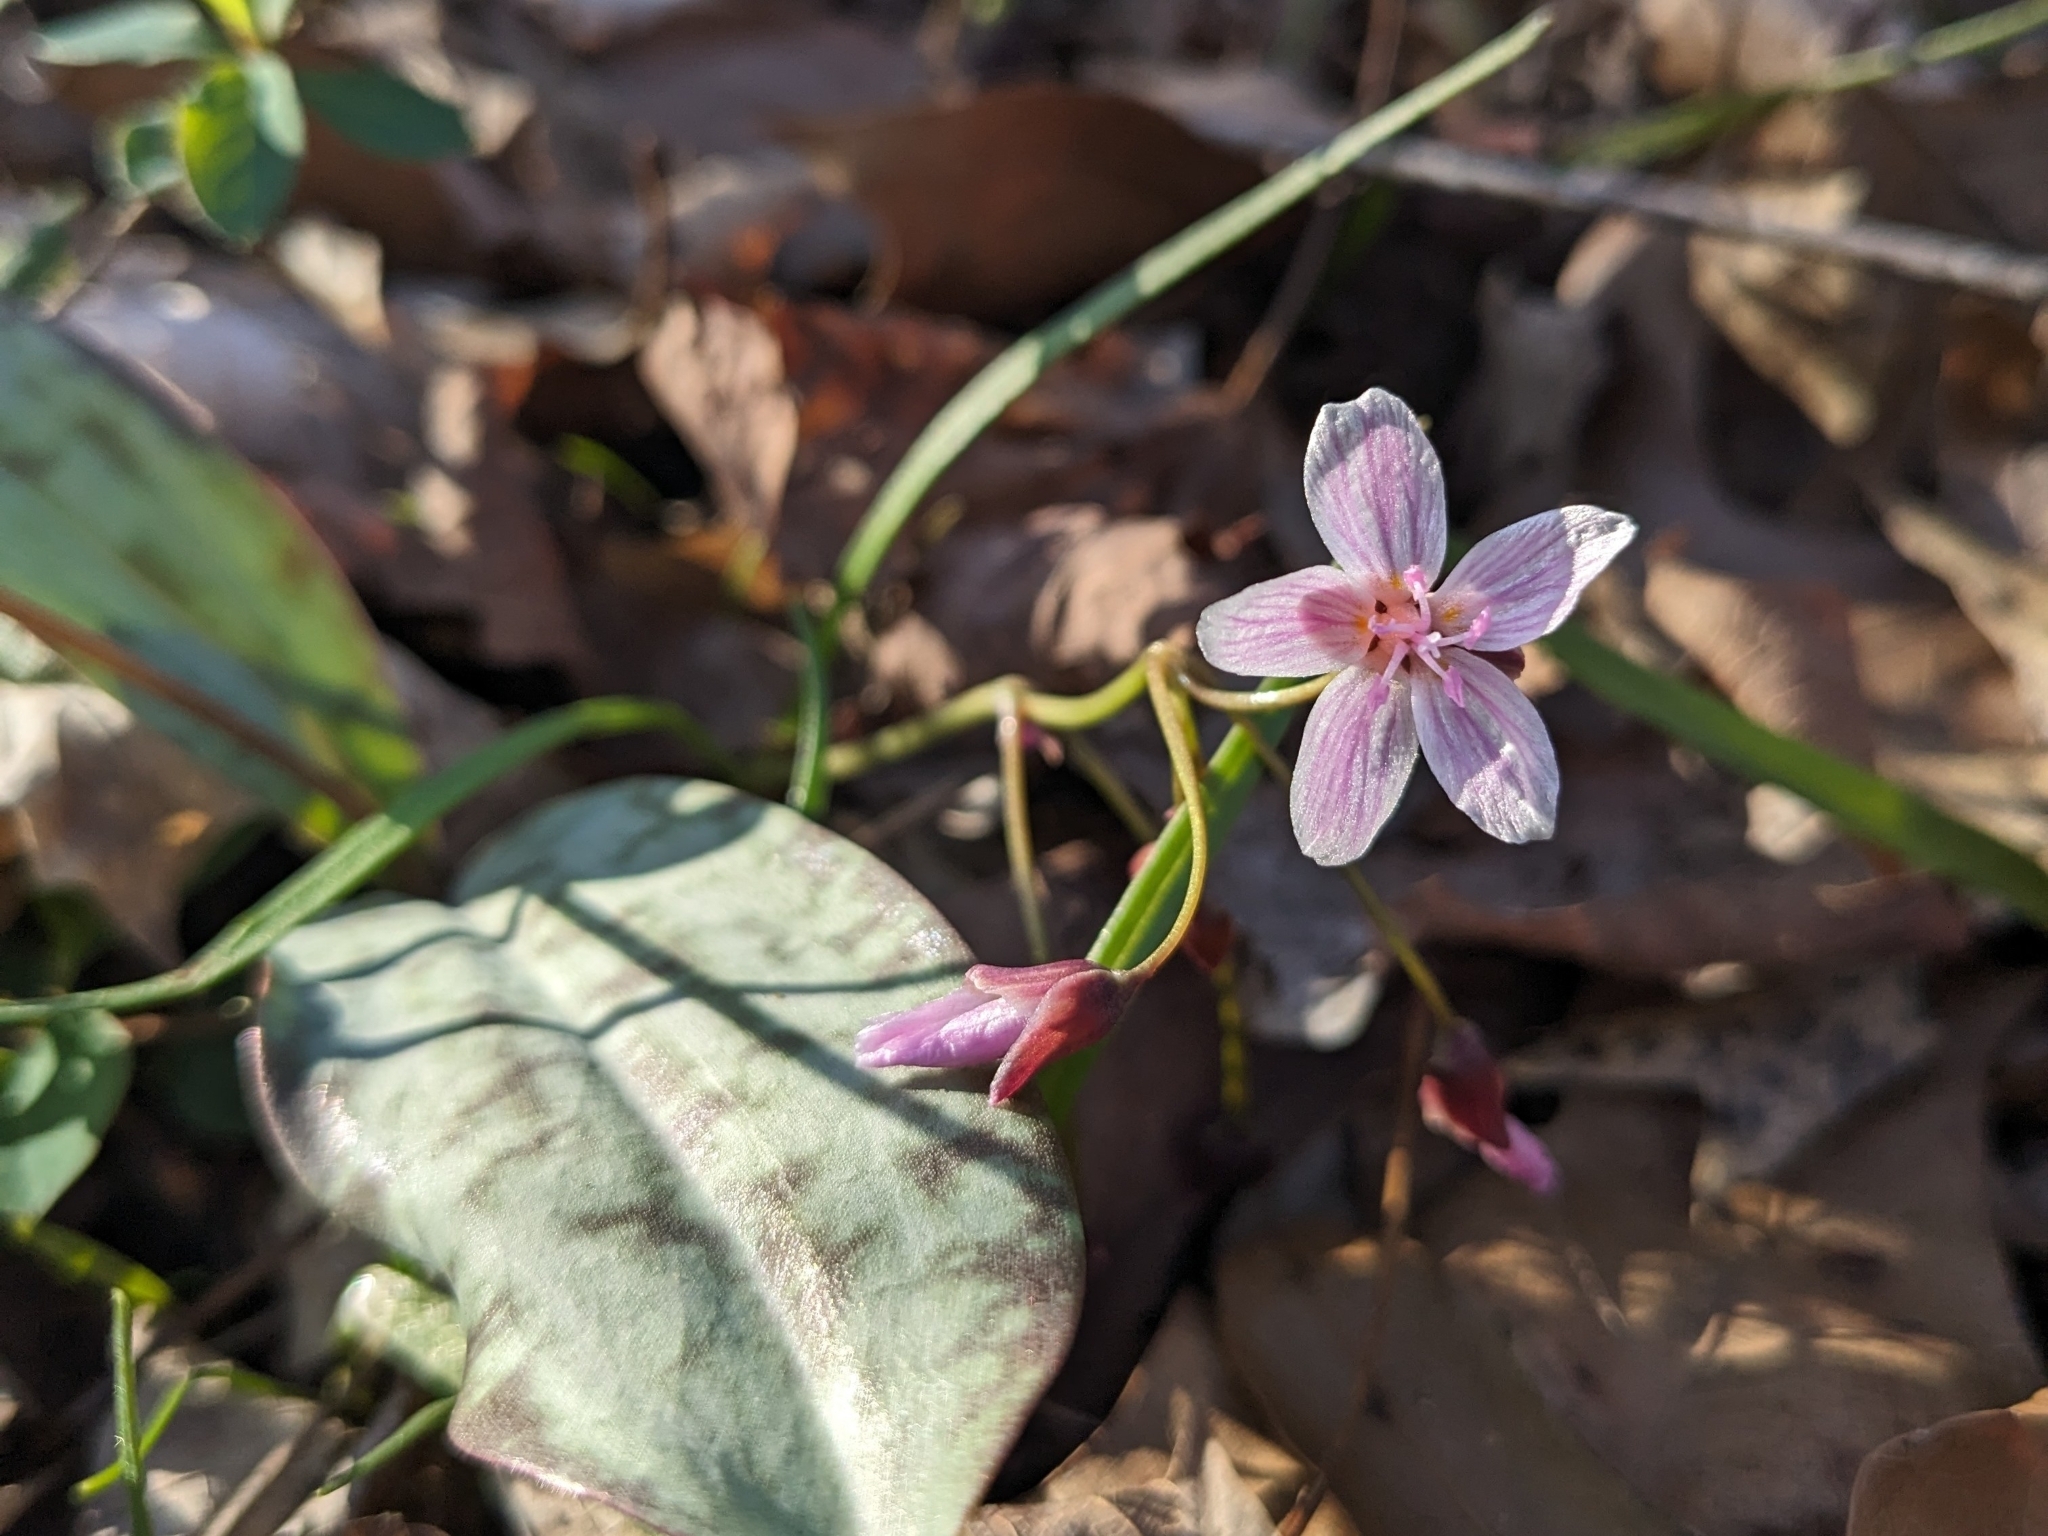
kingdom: Plantae
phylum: Tracheophyta
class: Magnoliopsida
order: Caryophyllales
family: Montiaceae
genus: Claytonia
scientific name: Claytonia virginica
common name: Virginia springbeauty
